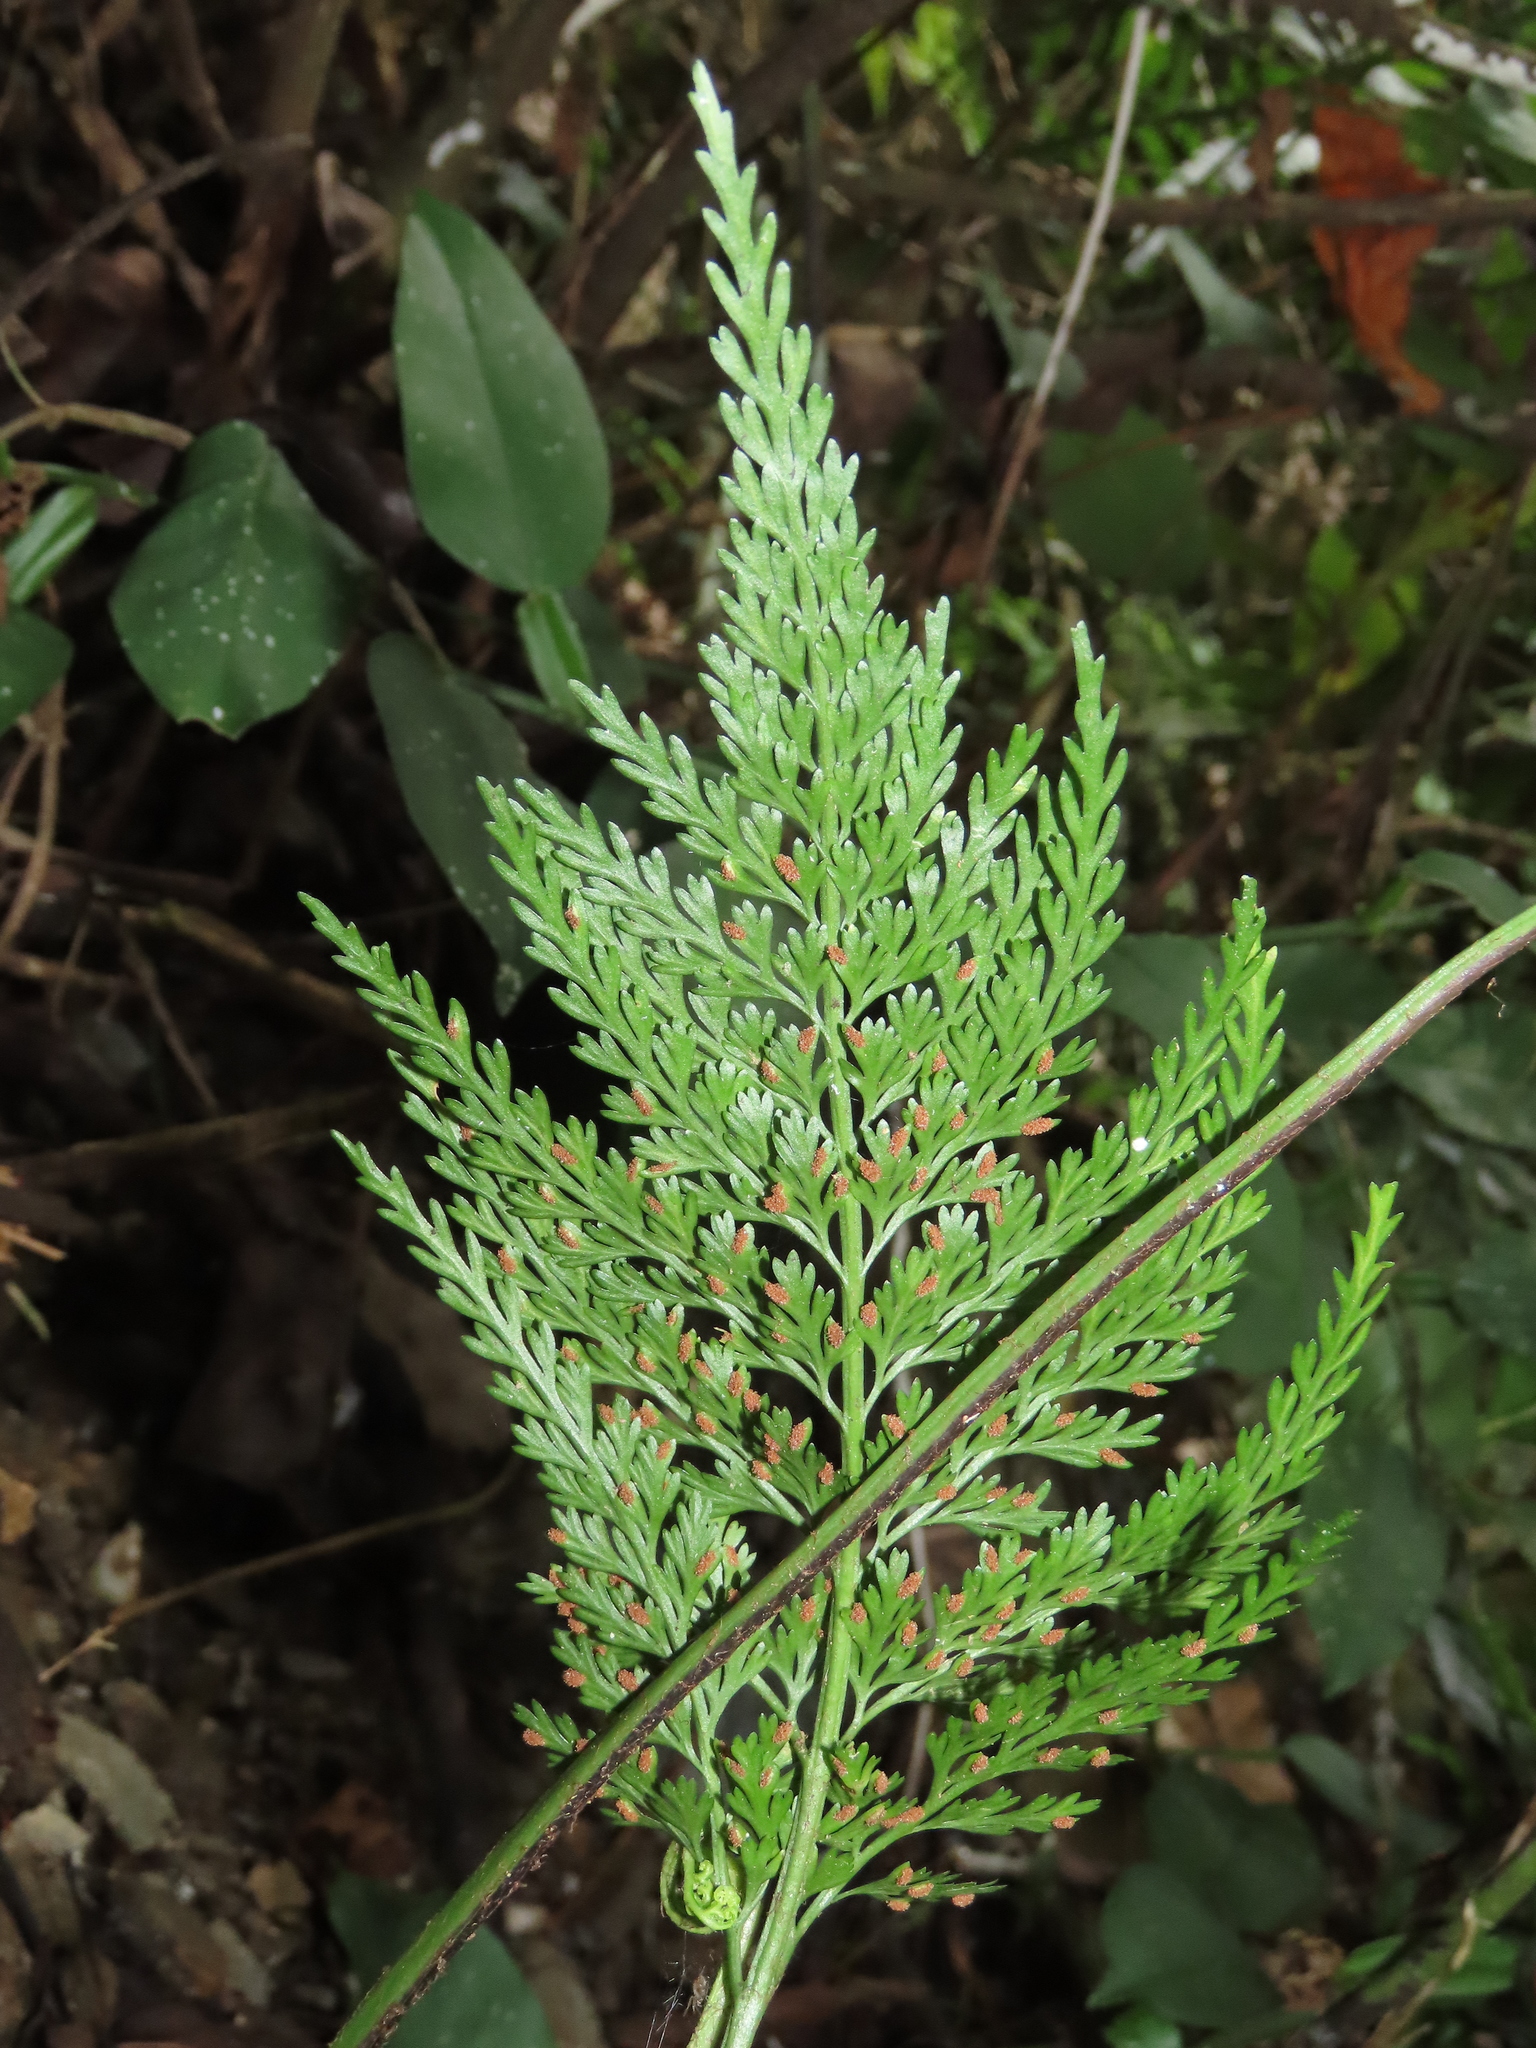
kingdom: Plantae
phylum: Tracheophyta
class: Polypodiopsida
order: Polypodiales
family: Aspleniaceae
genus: Asplenium
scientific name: Asplenium ritoense
